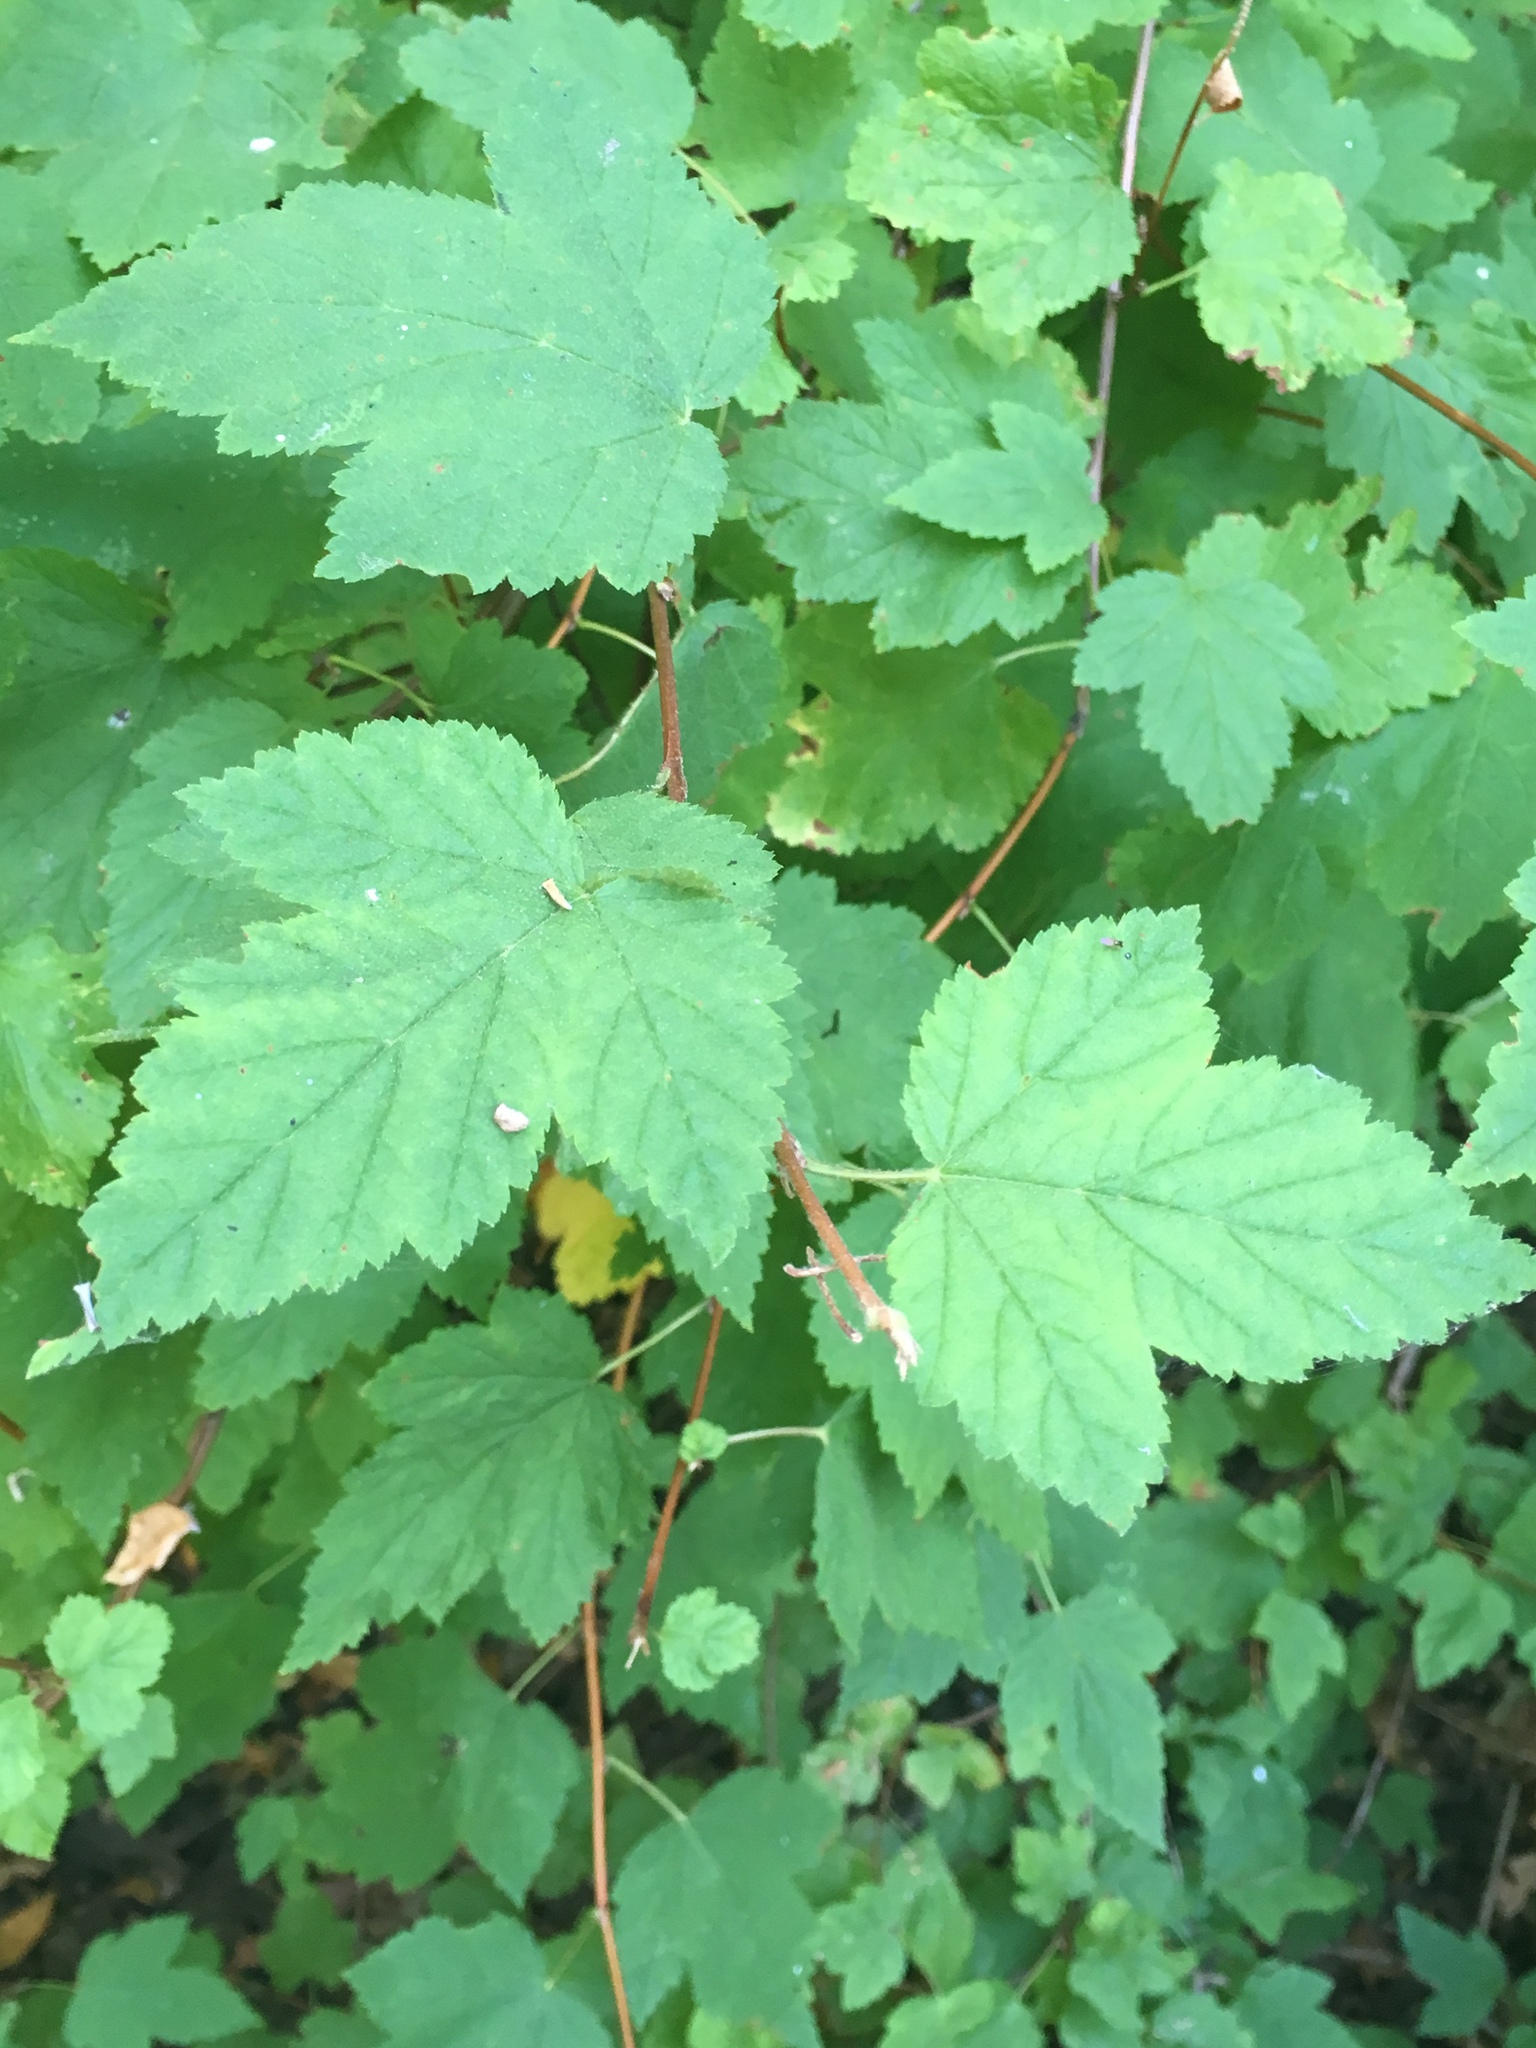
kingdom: Plantae
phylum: Tracheophyta
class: Magnoliopsida
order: Rosales
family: Rosaceae
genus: Physocarpus
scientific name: Physocarpus capitatus
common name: Pacific ninebark
